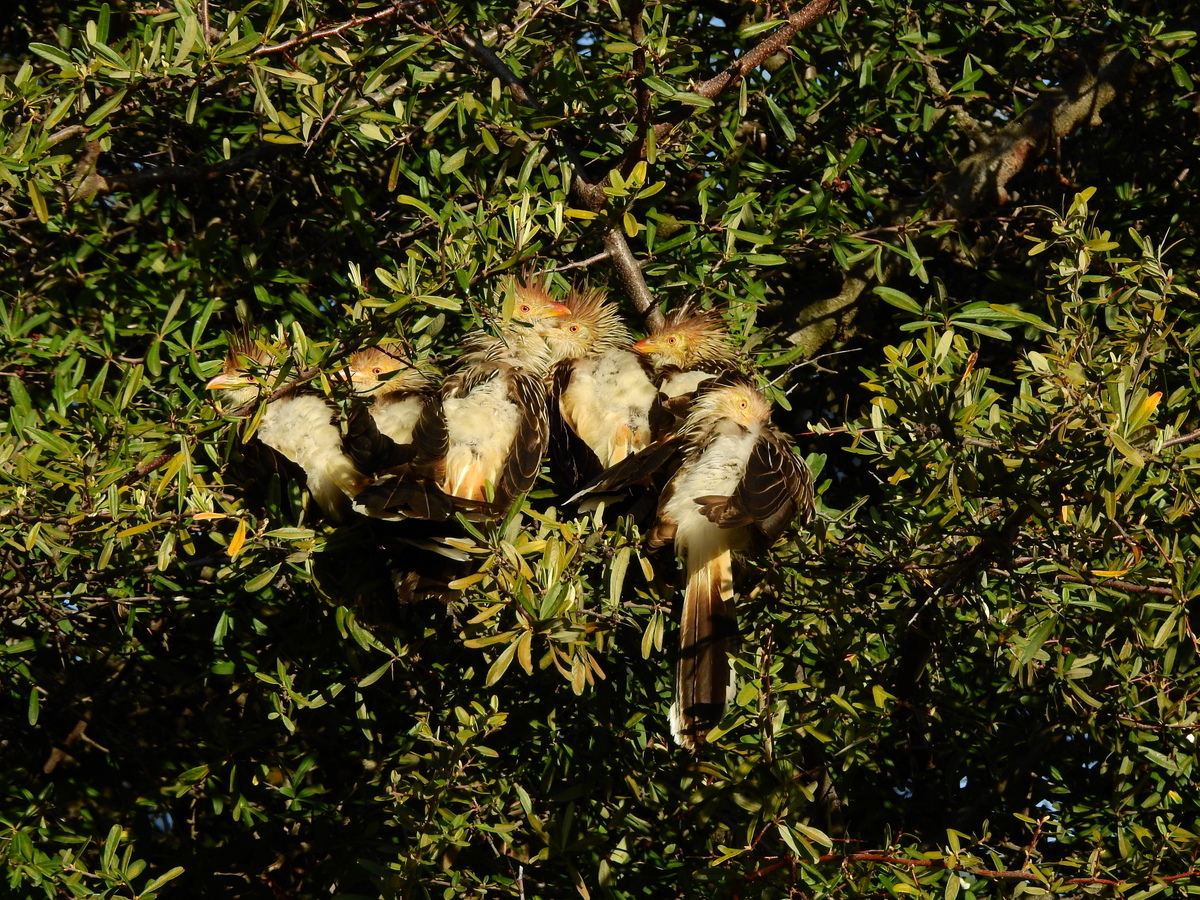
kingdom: Animalia
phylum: Chordata
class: Aves
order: Cuculiformes
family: Cuculidae
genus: Guira
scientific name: Guira guira
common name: Guira cuckoo
